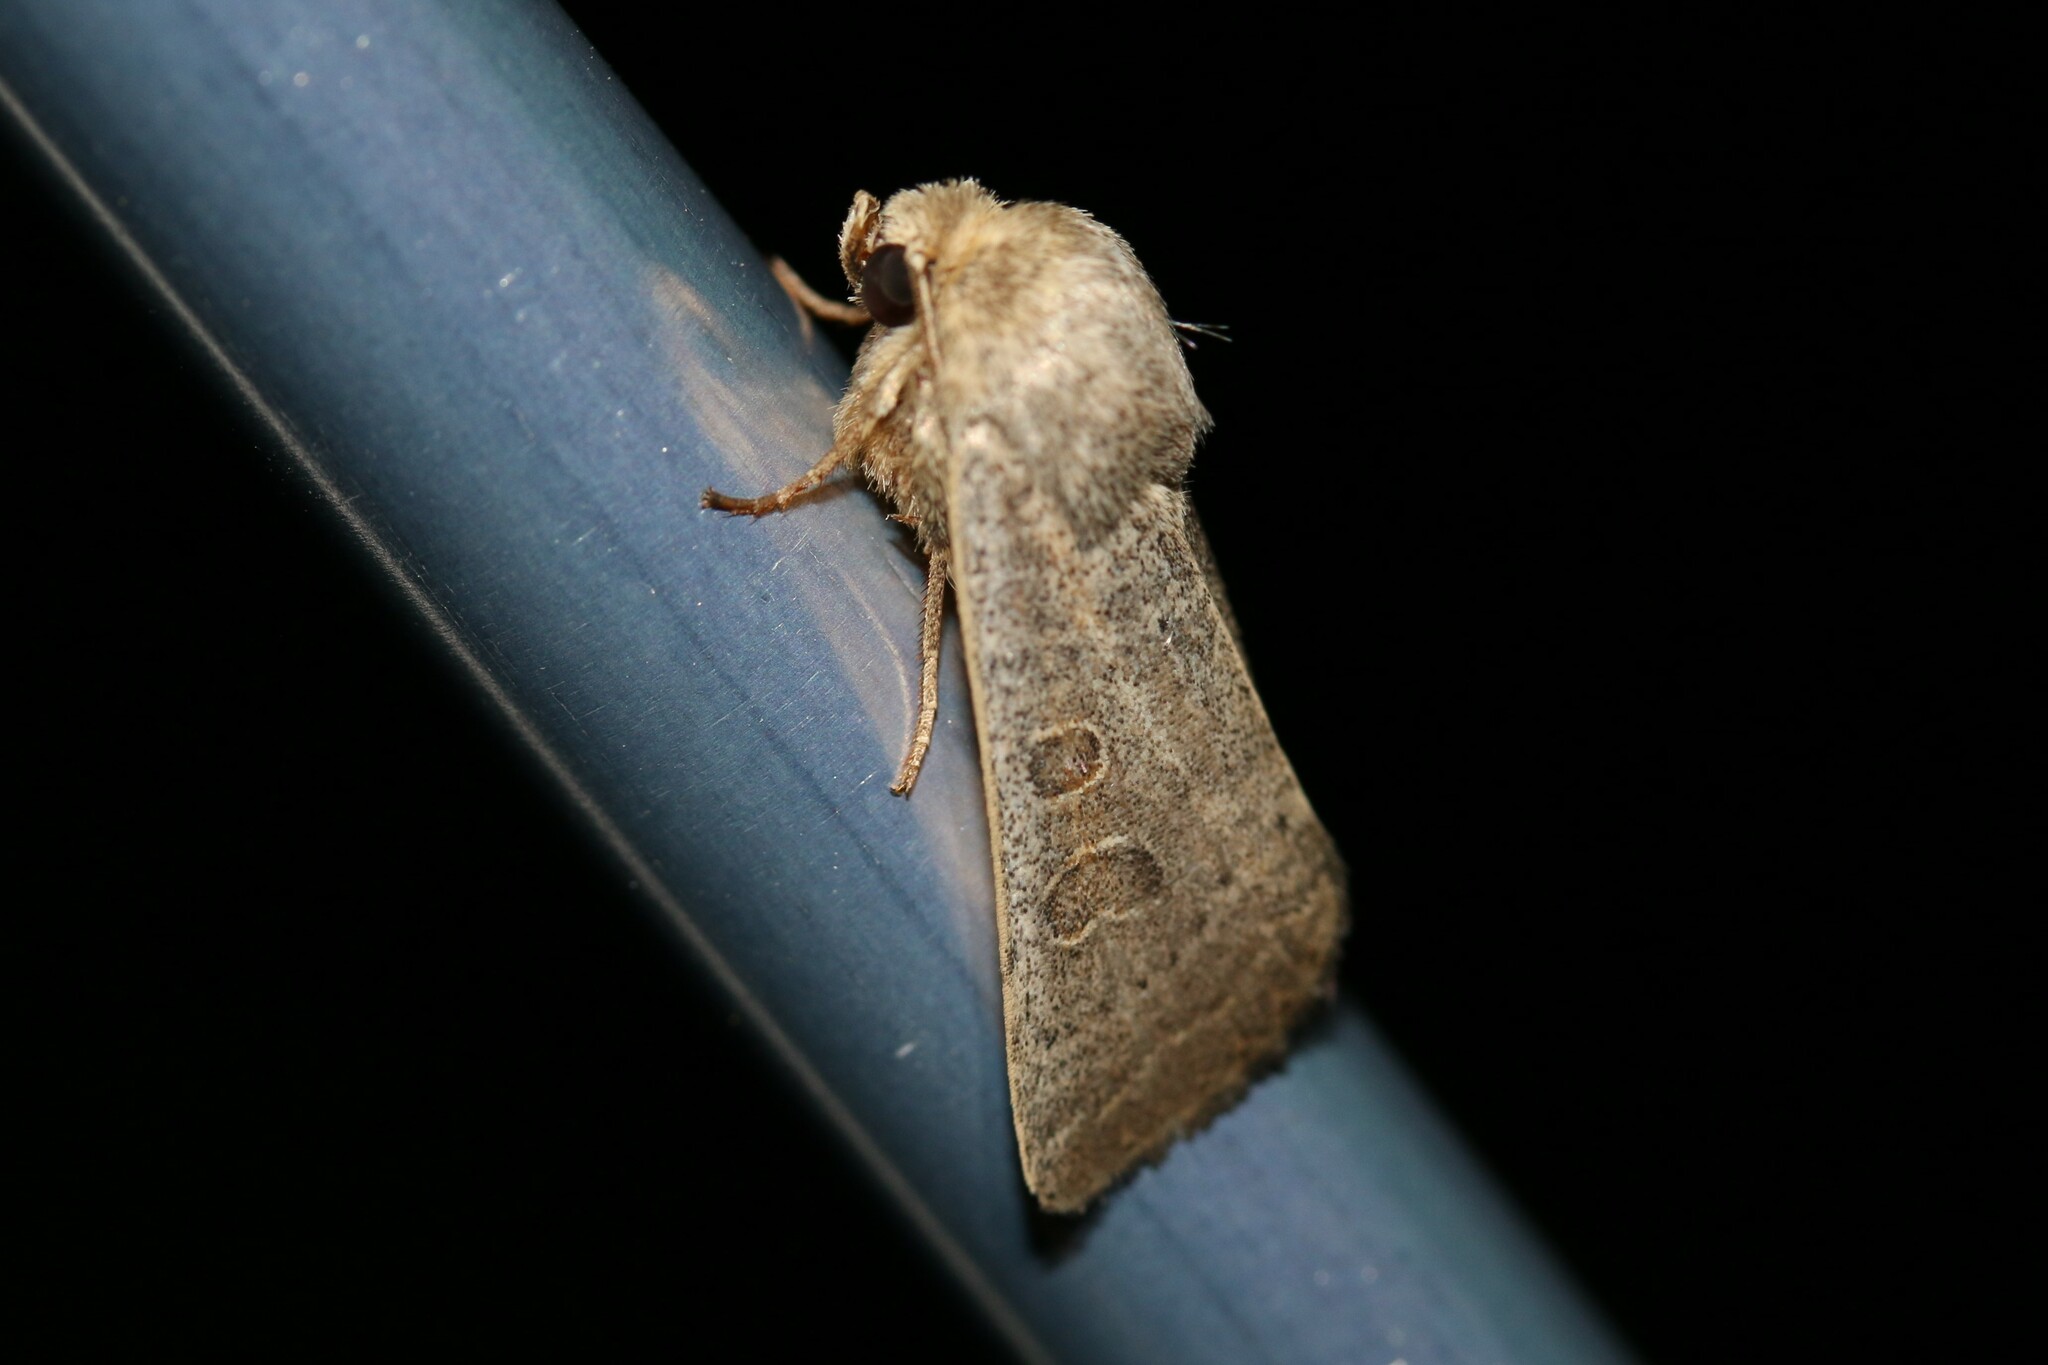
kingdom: Animalia
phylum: Arthropoda
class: Insecta
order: Lepidoptera
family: Noctuidae
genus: Hoplodrina
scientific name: Hoplodrina ambigua
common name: Vine's rustic
